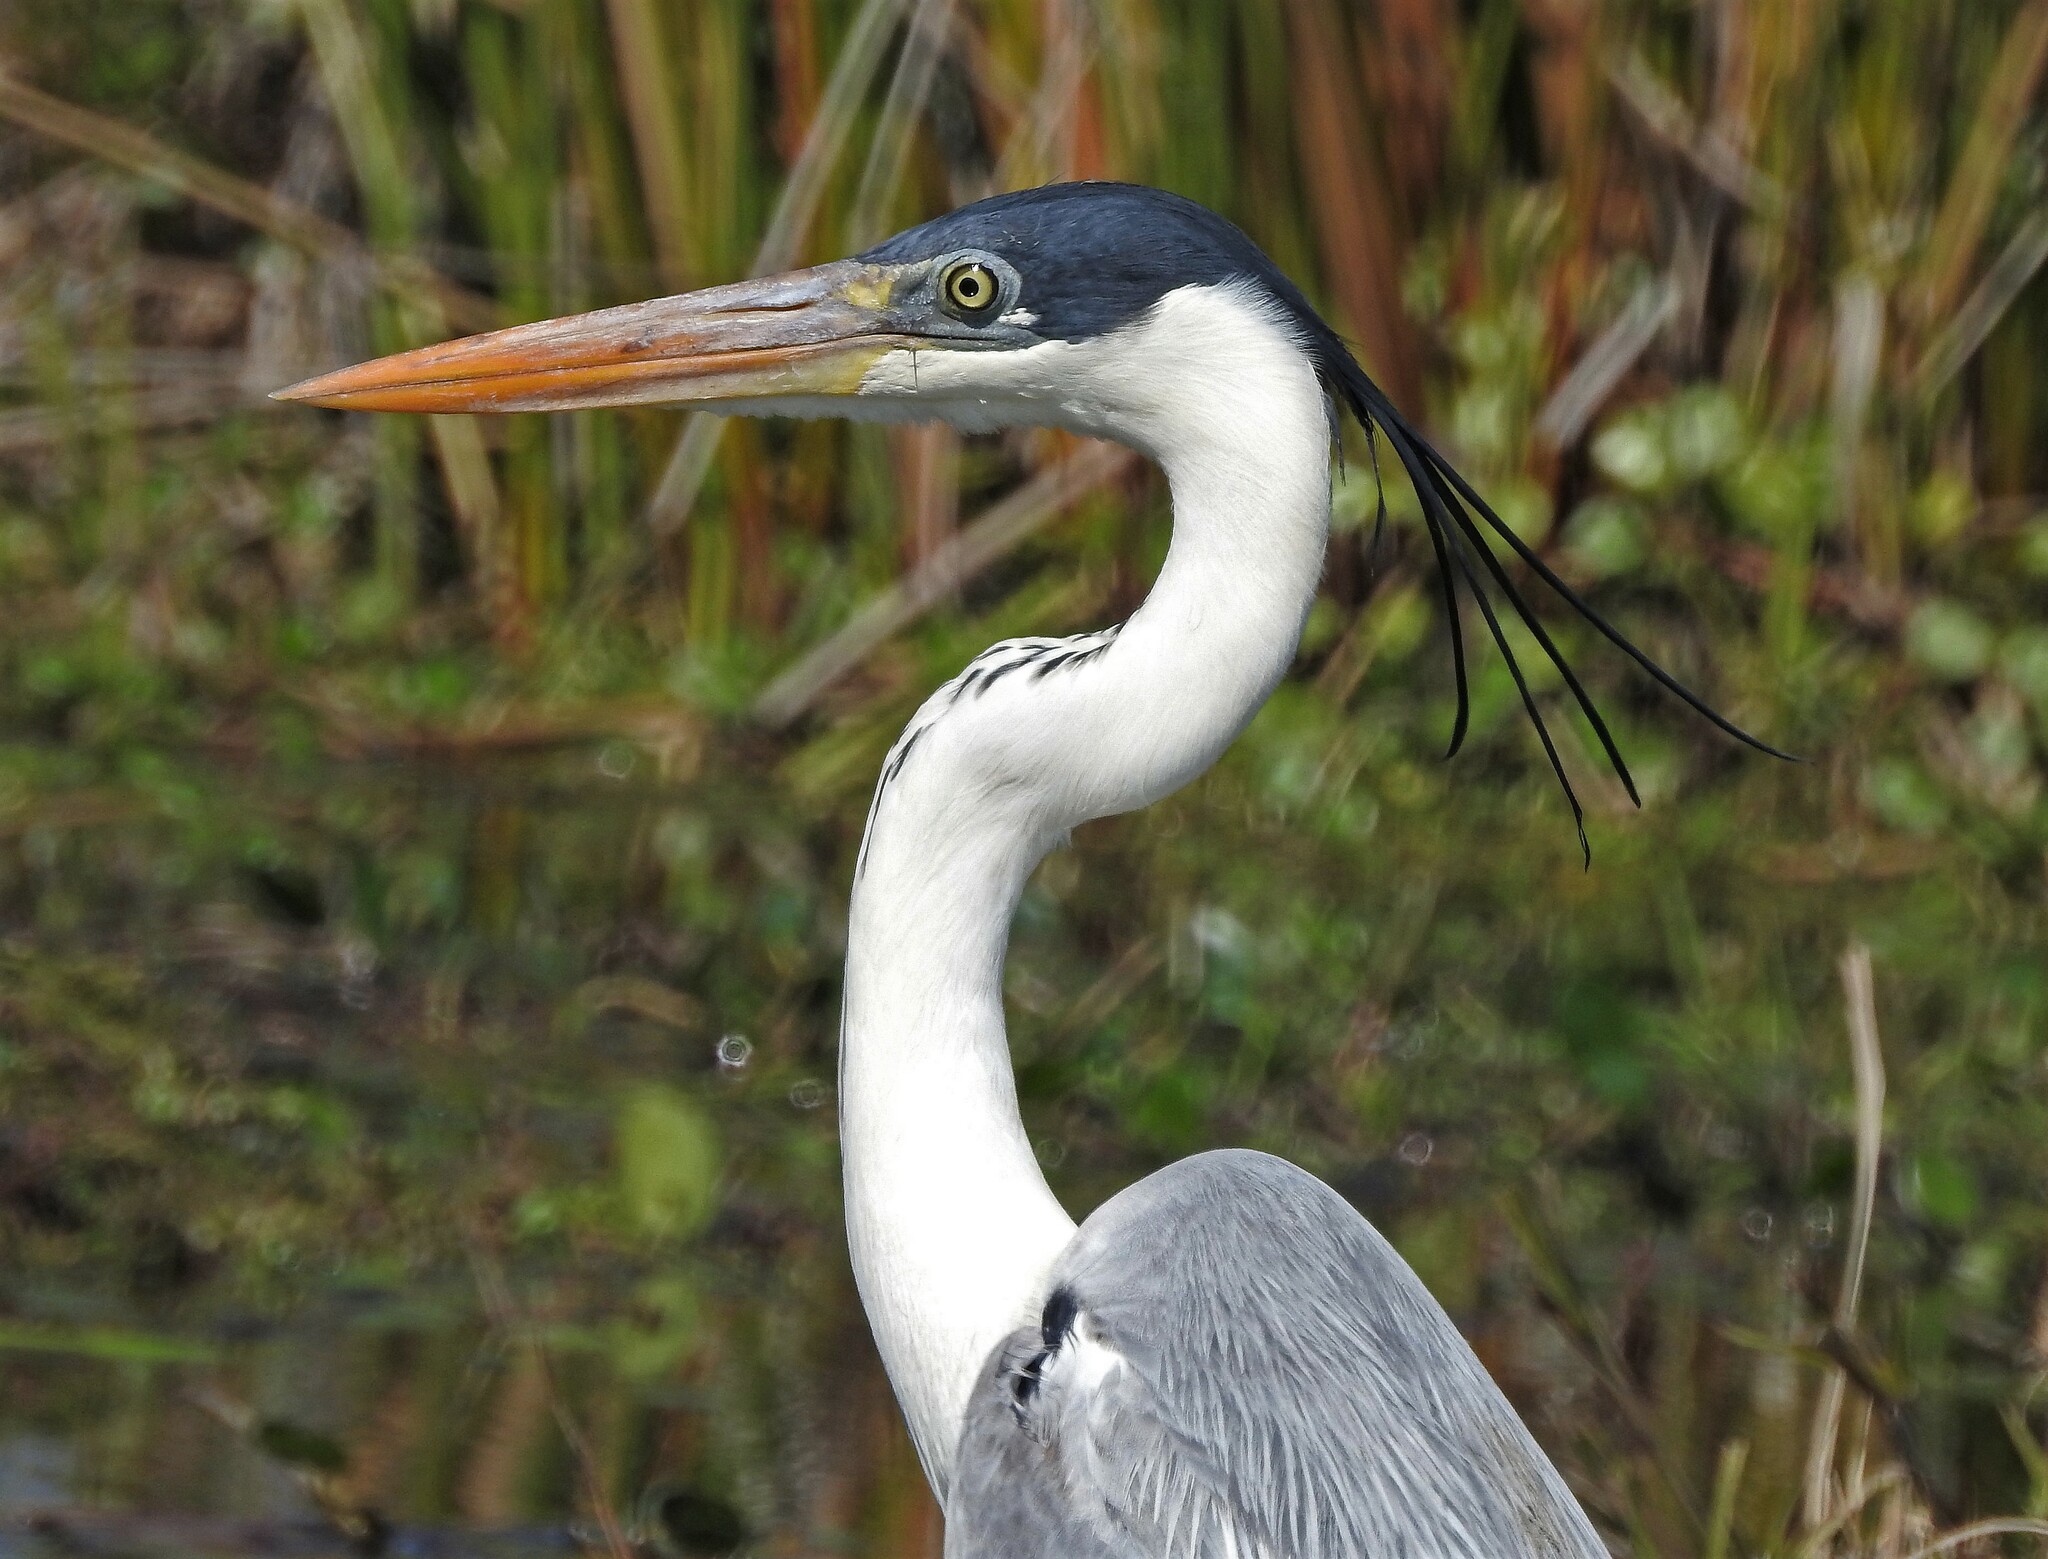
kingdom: Animalia
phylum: Chordata
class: Aves
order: Pelecaniformes
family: Ardeidae
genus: Ardea
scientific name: Ardea cocoi
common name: Cocoi heron
